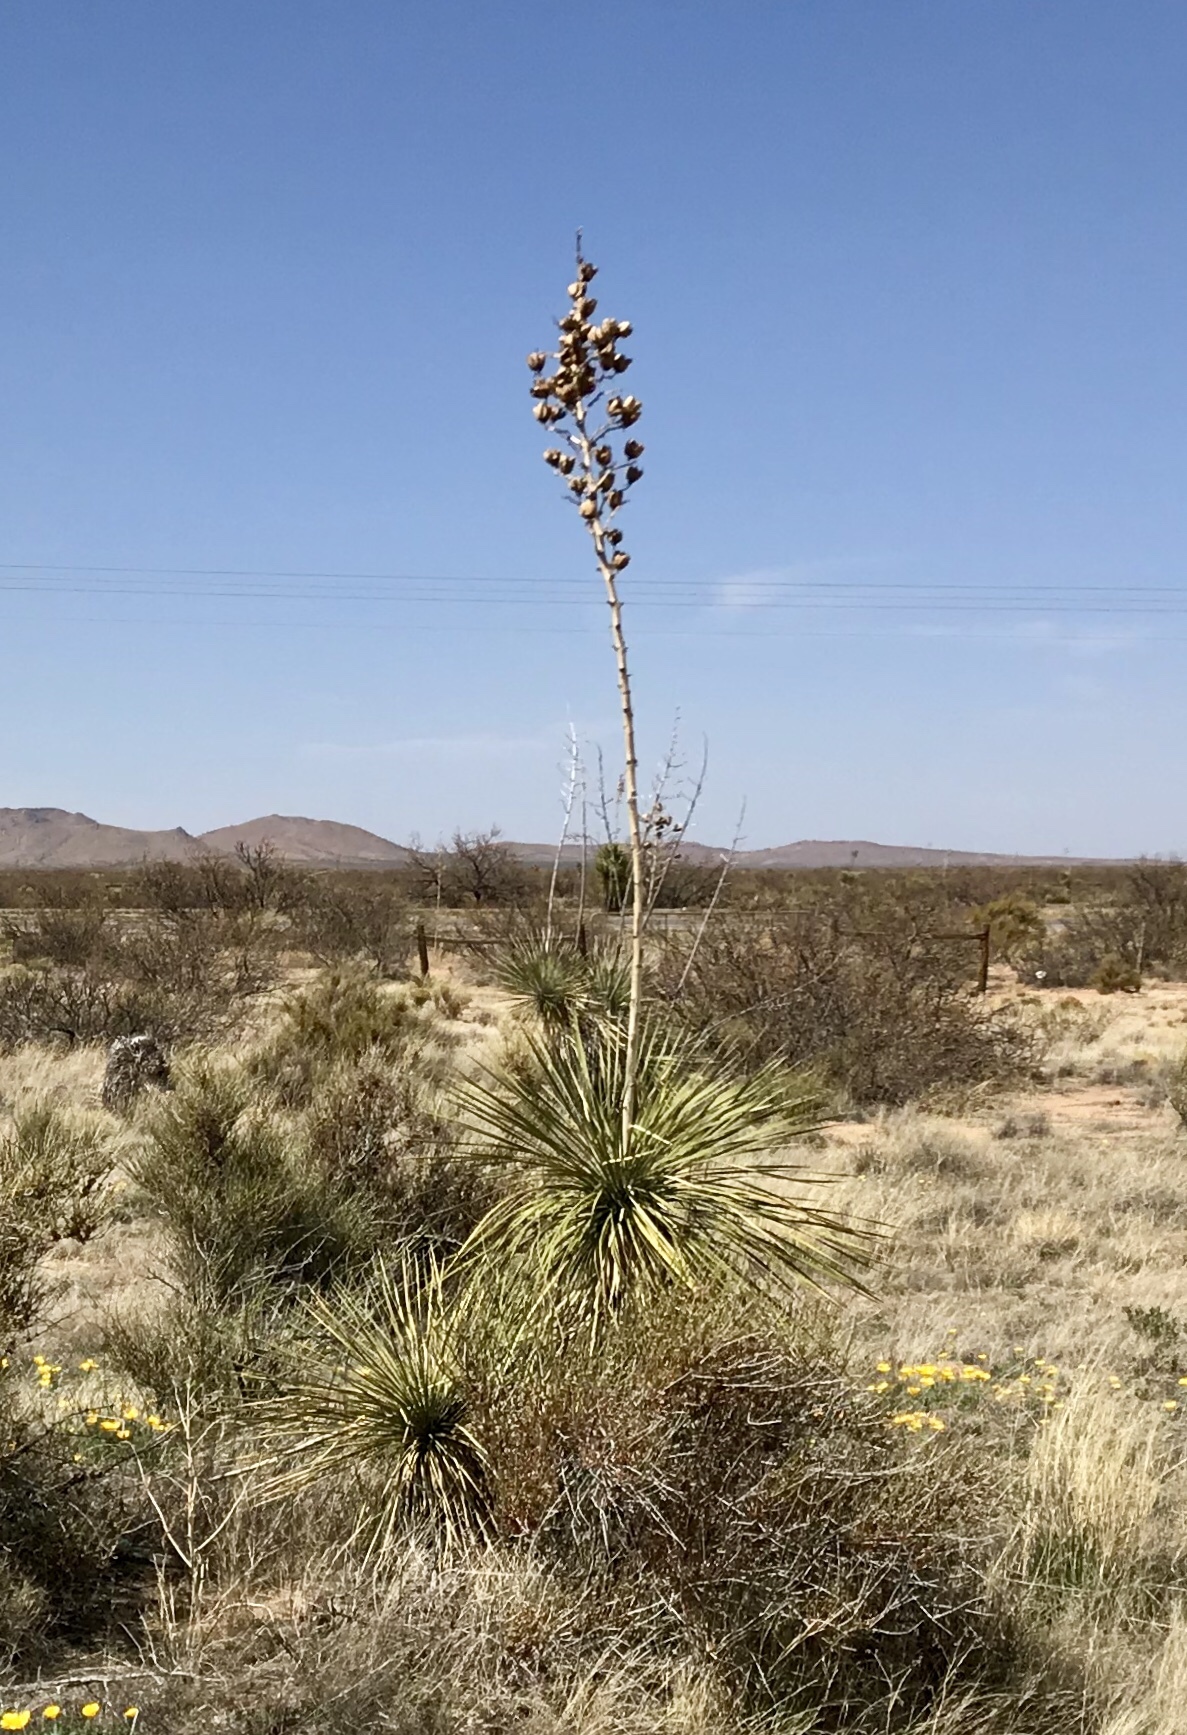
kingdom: Plantae
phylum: Tracheophyta
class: Liliopsida
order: Asparagales
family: Asparagaceae
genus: Yucca
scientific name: Yucca elata
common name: Palmella
